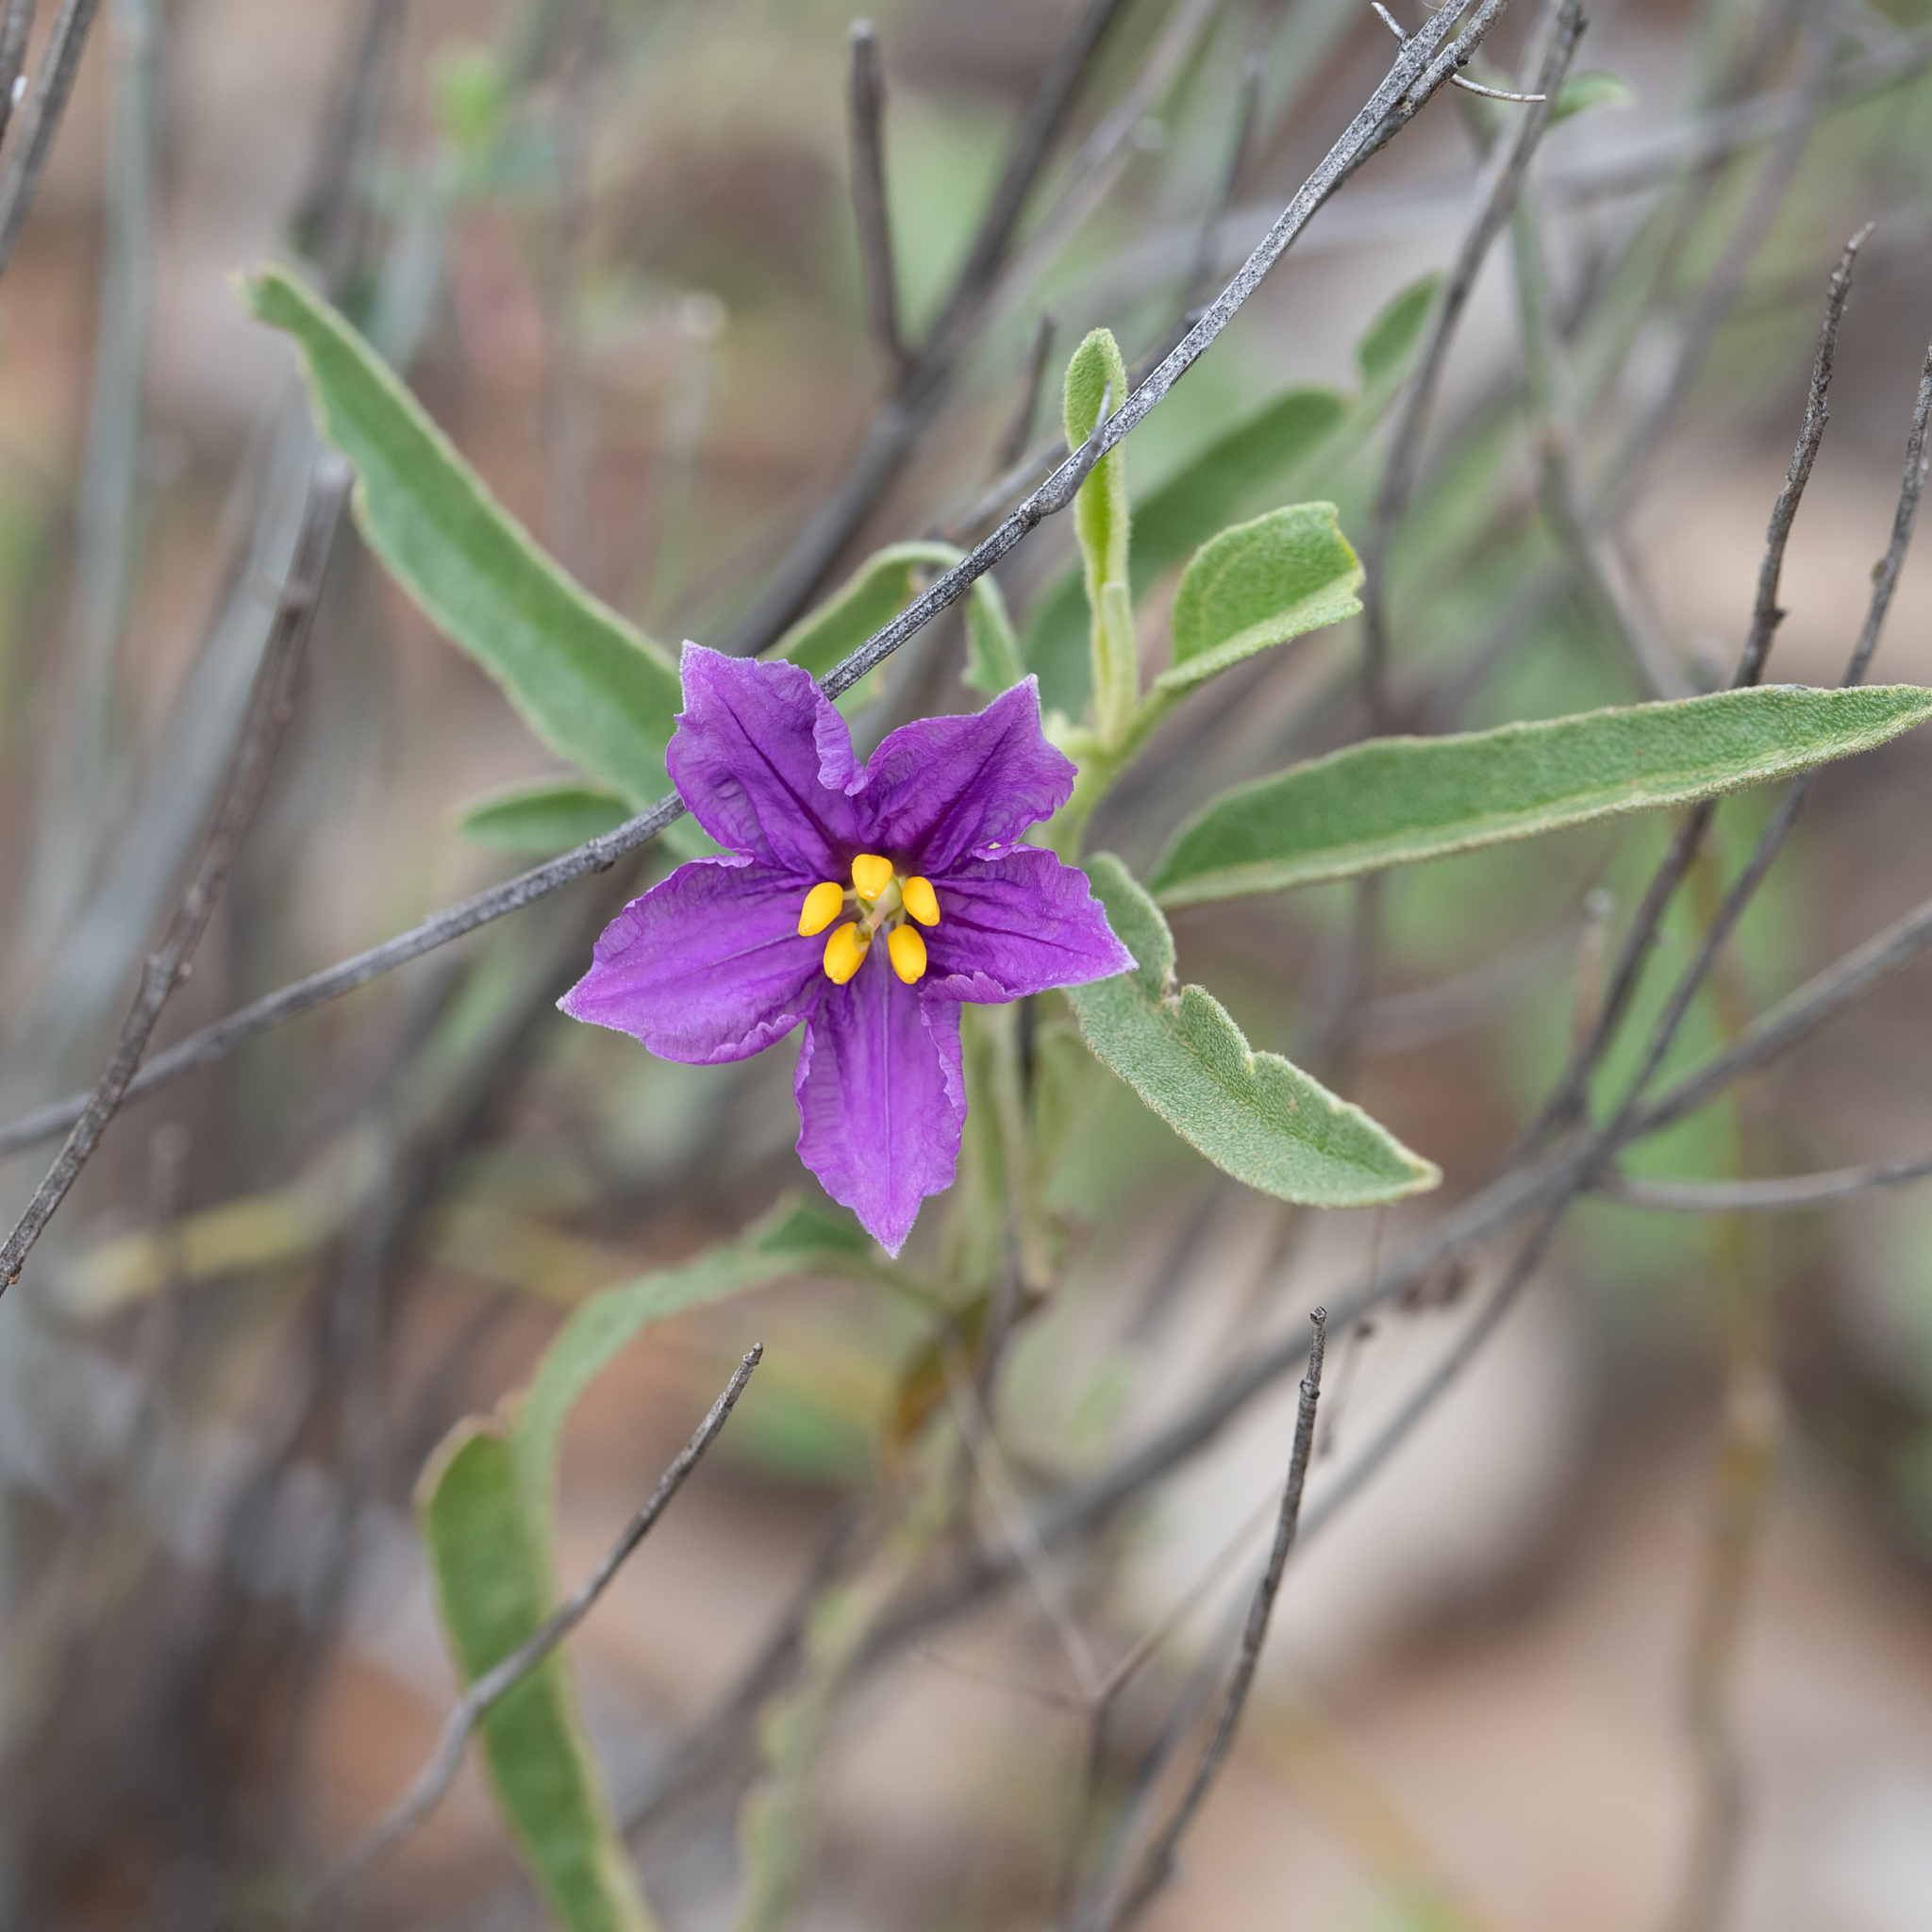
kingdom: Plantae
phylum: Tracheophyta
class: Magnoliopsida
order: Solanales
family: Solanaceae
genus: Solanum
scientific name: Solanum esuriale
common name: Wild tomato
